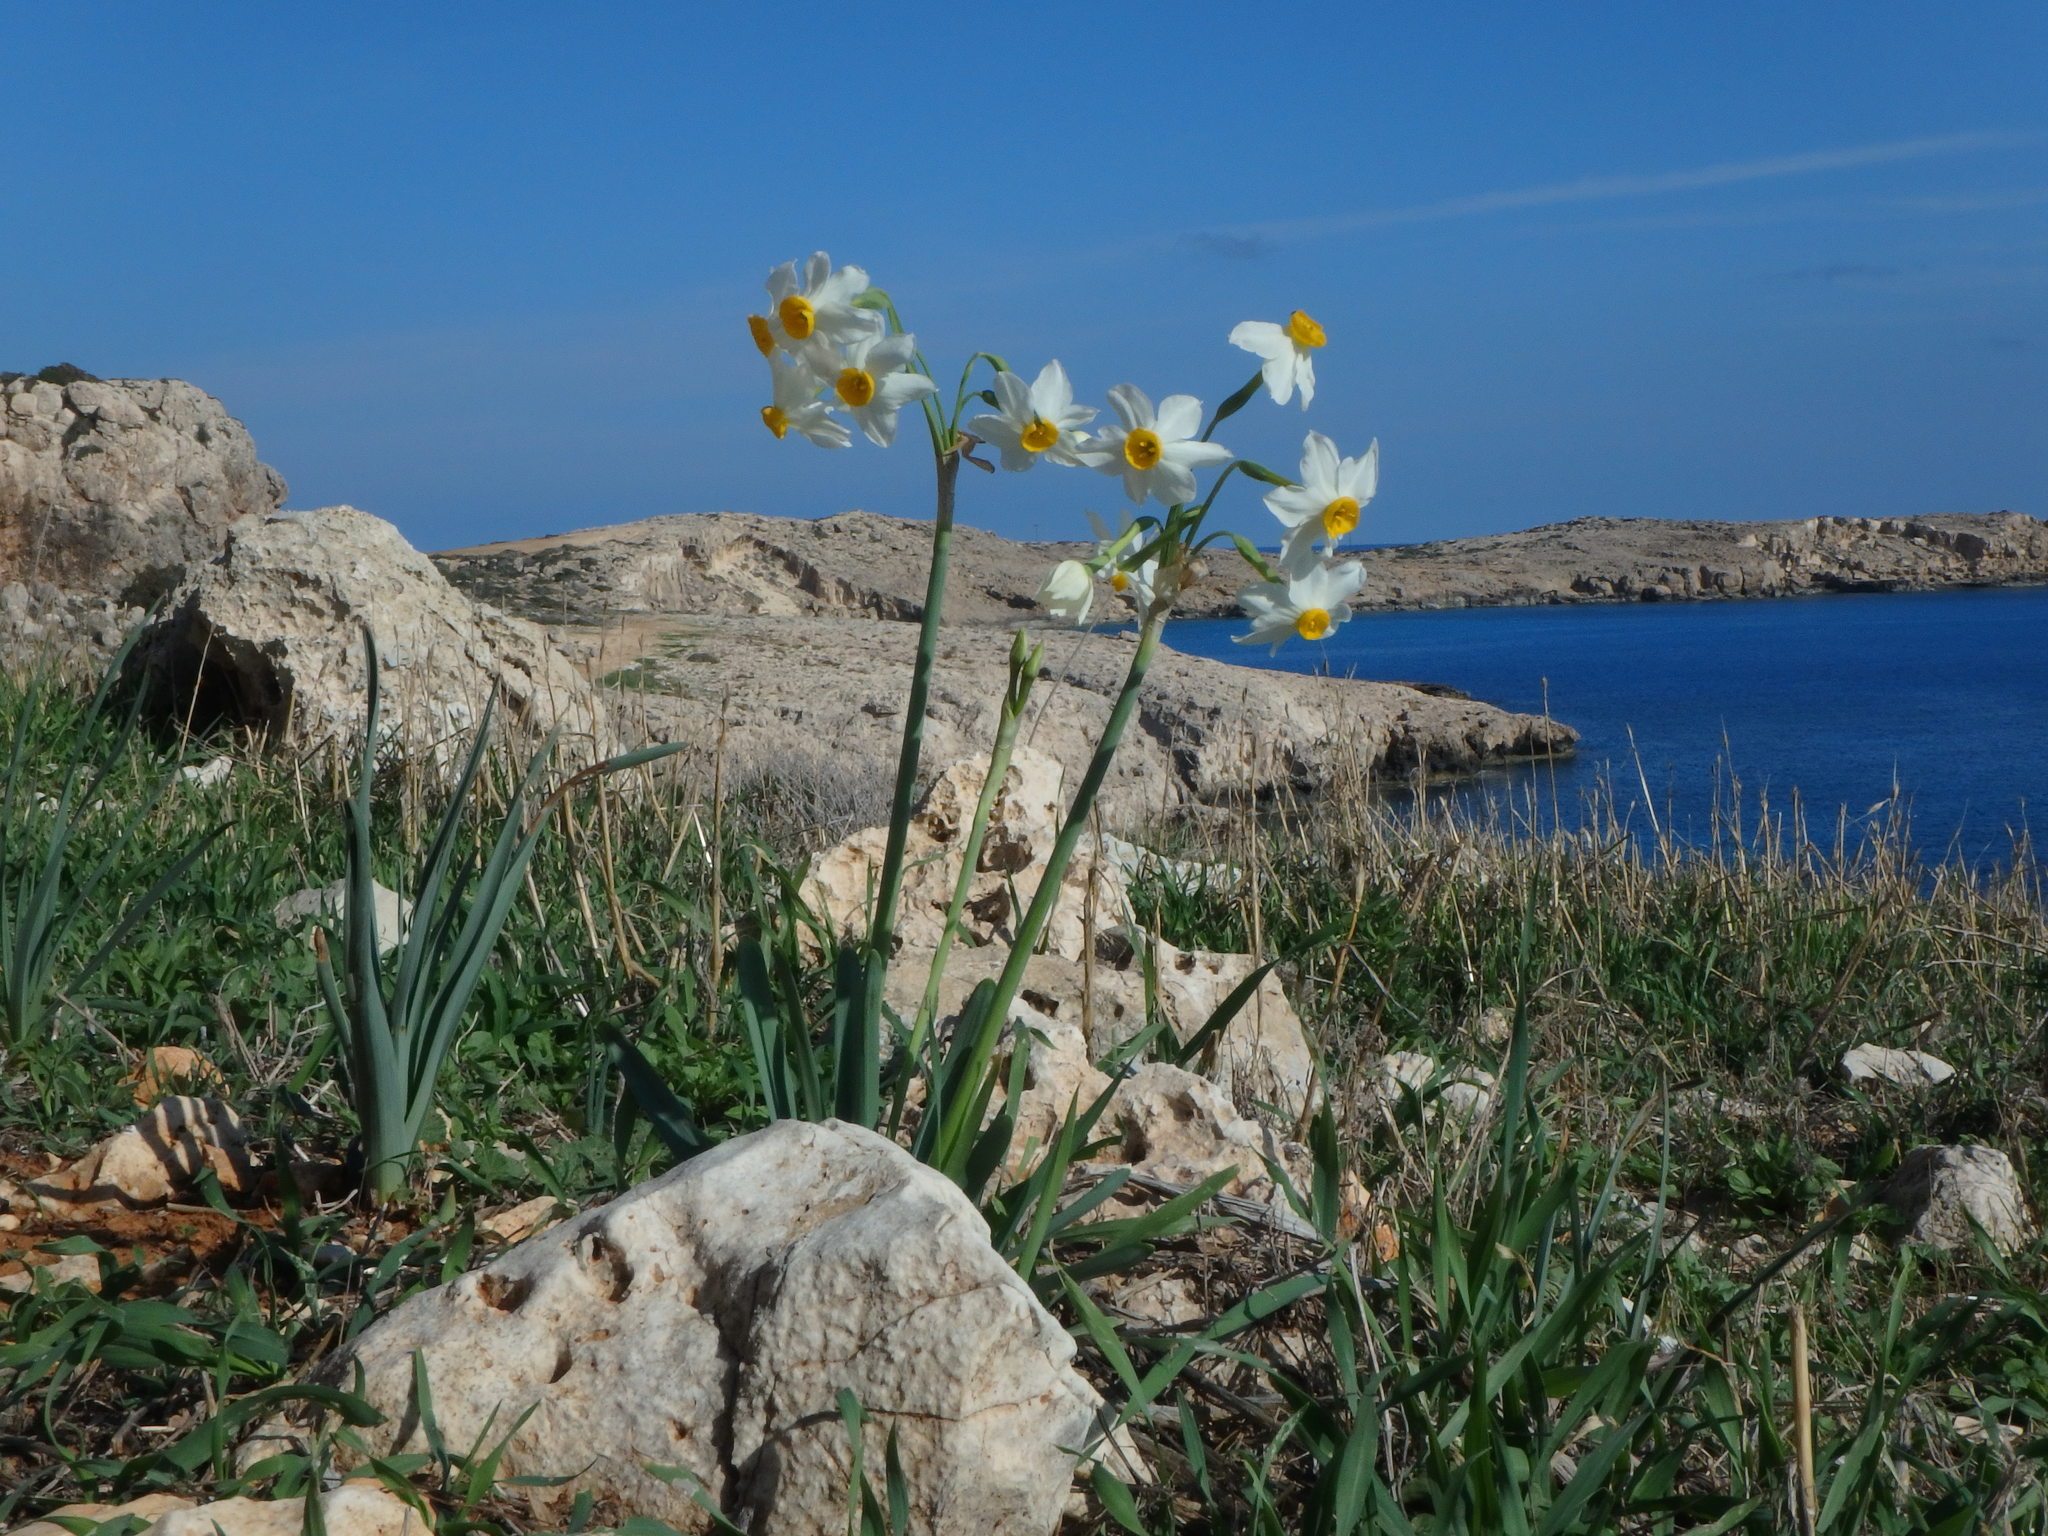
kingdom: Plantae
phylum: Tracheophyta
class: Liliopsida
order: Asparagales
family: Amaryllidaceae
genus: Narcissus
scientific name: Narcissus tazetta
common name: Bunch-flowered daffodil
